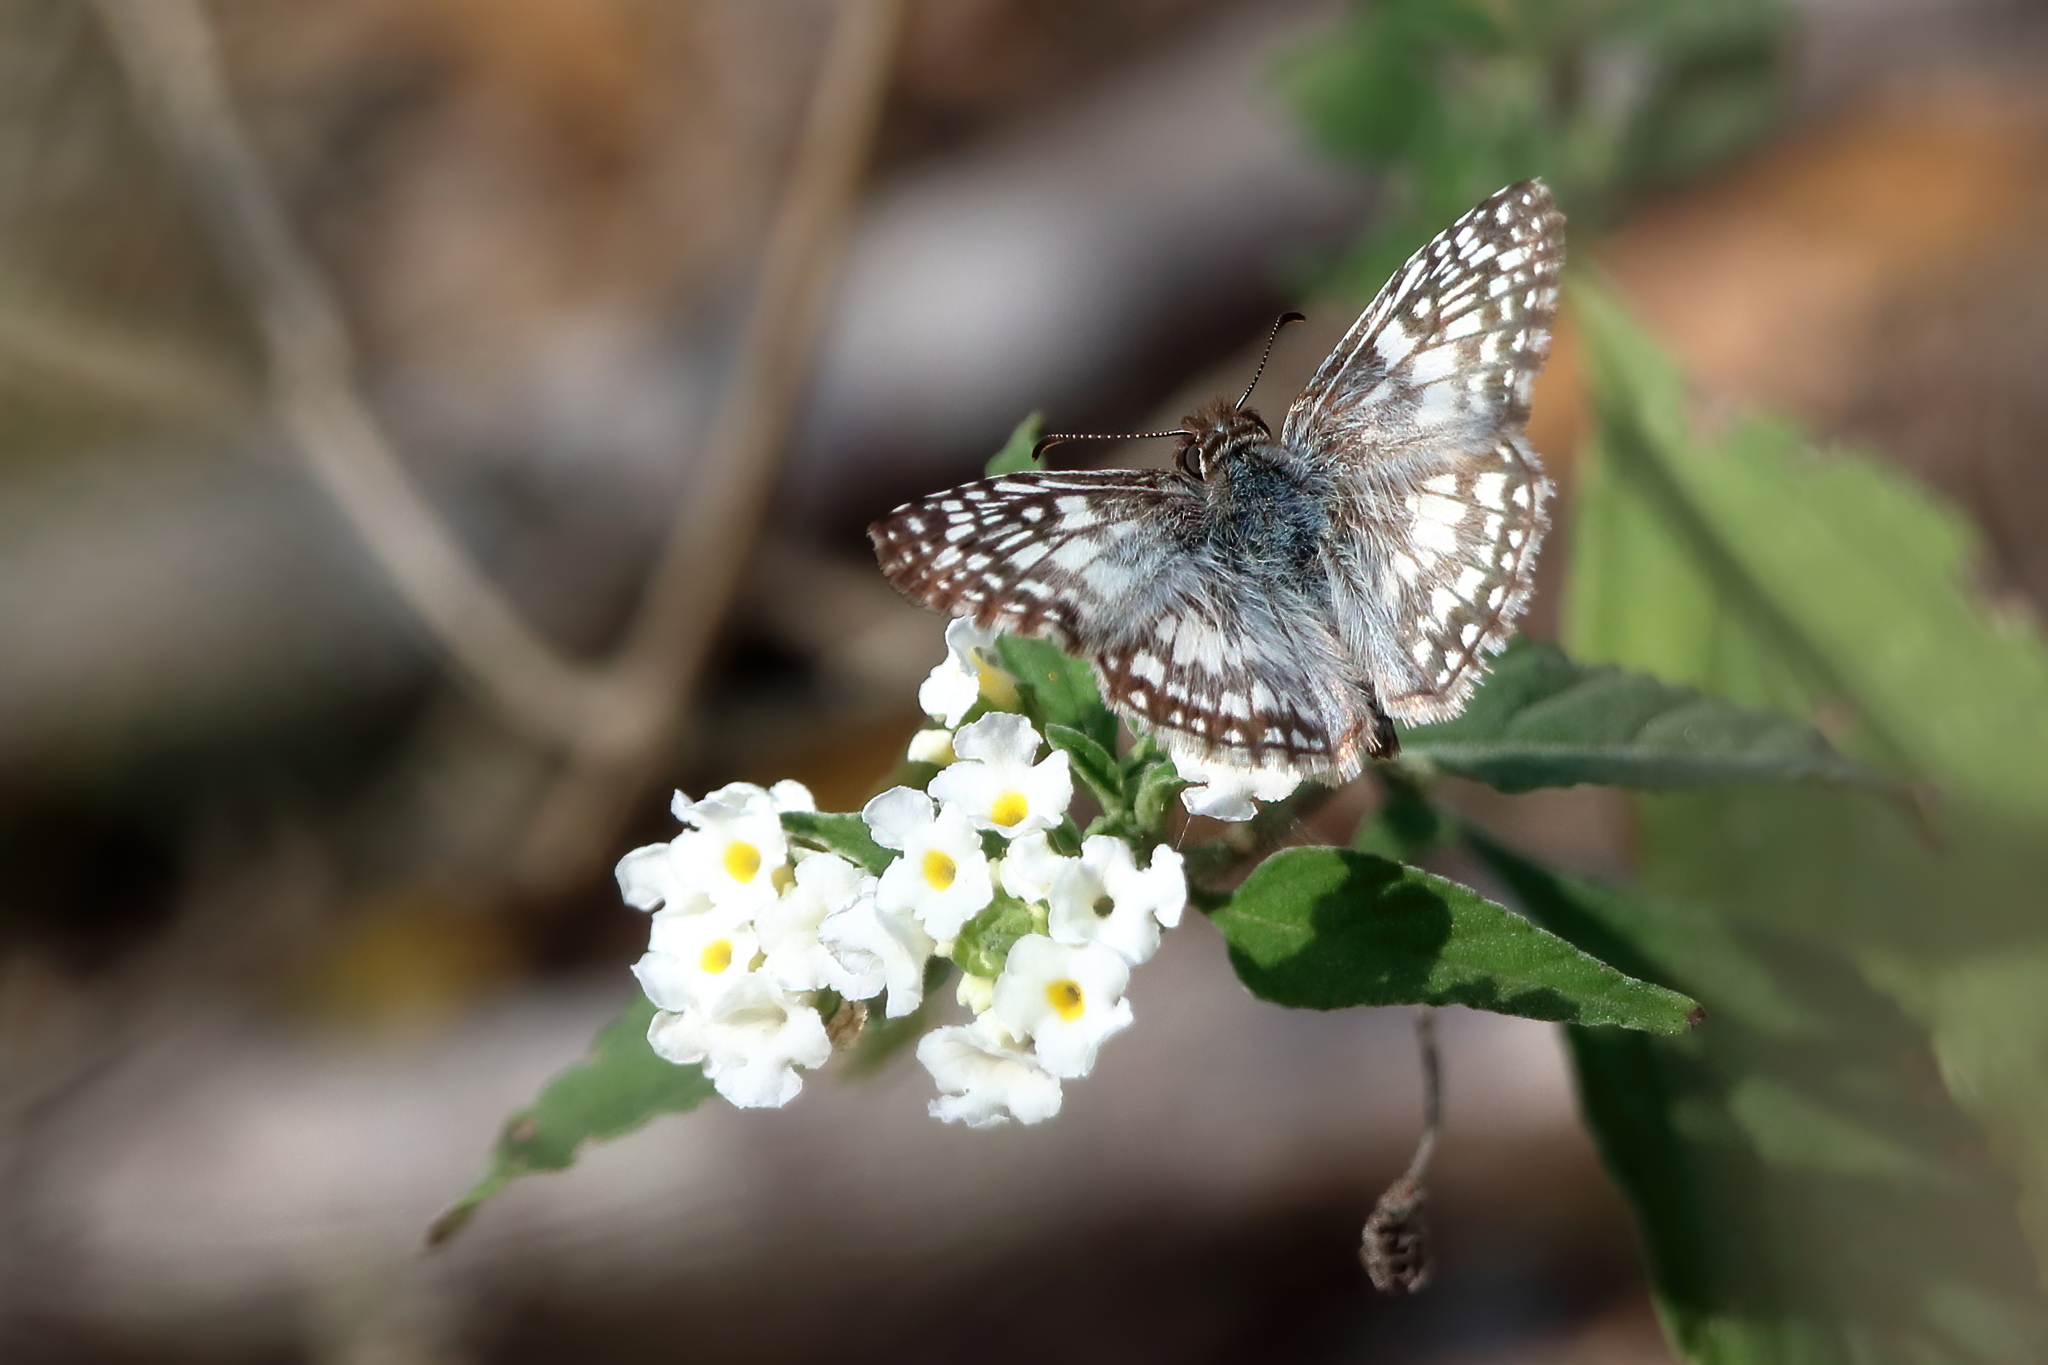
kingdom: Animalia
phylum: Arthropoda
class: Insecta
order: Lepidoptera
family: Hesperiidae
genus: Pyrgus
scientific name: Pyrgus oileus
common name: Tropical checkered-skipper
